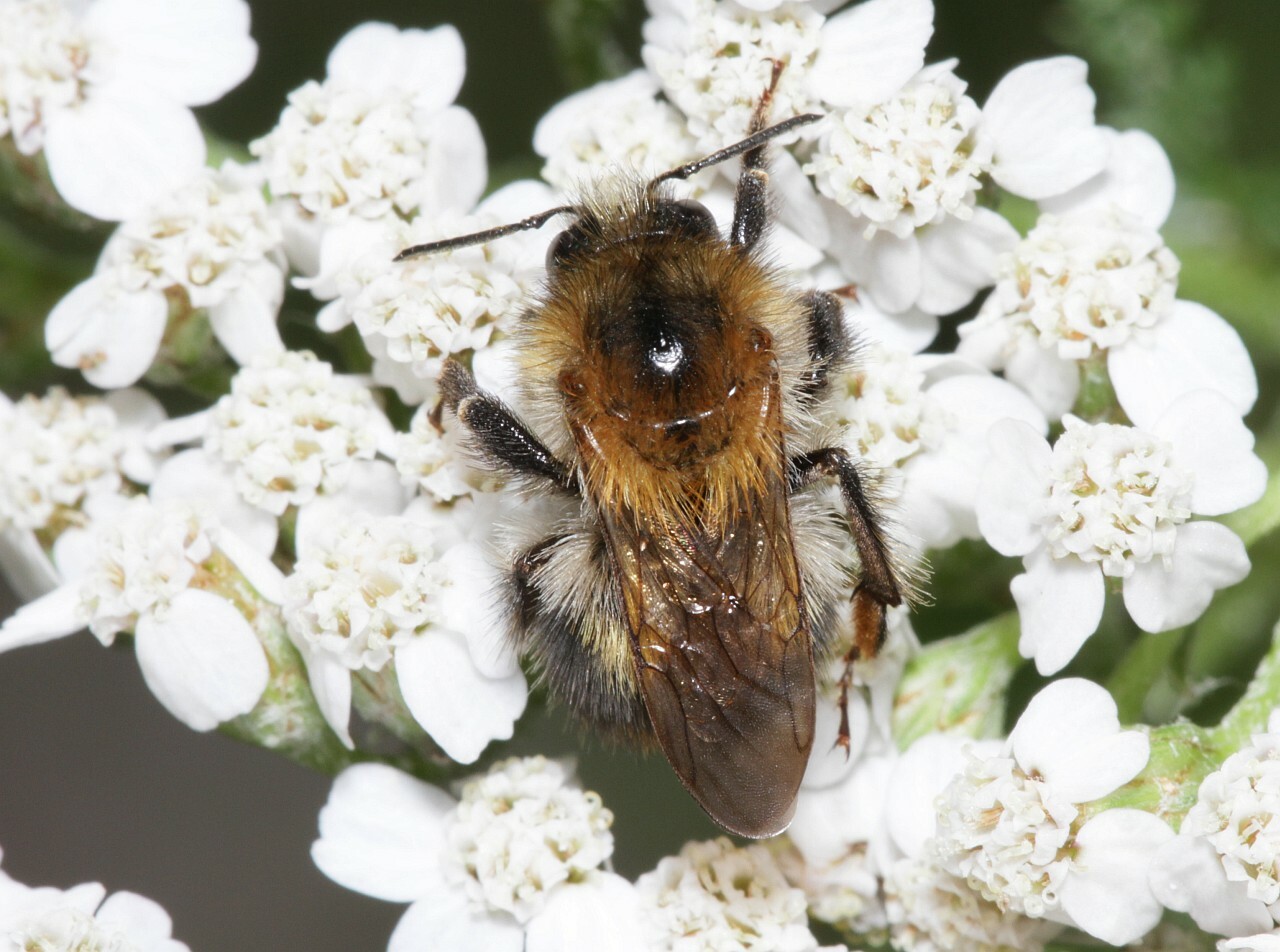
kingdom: Animalia
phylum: Arthropoda
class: Insecta
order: Hymenoptera
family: Apidae
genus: Bombus
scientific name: Bombus pascuorum
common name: Common carder bee
